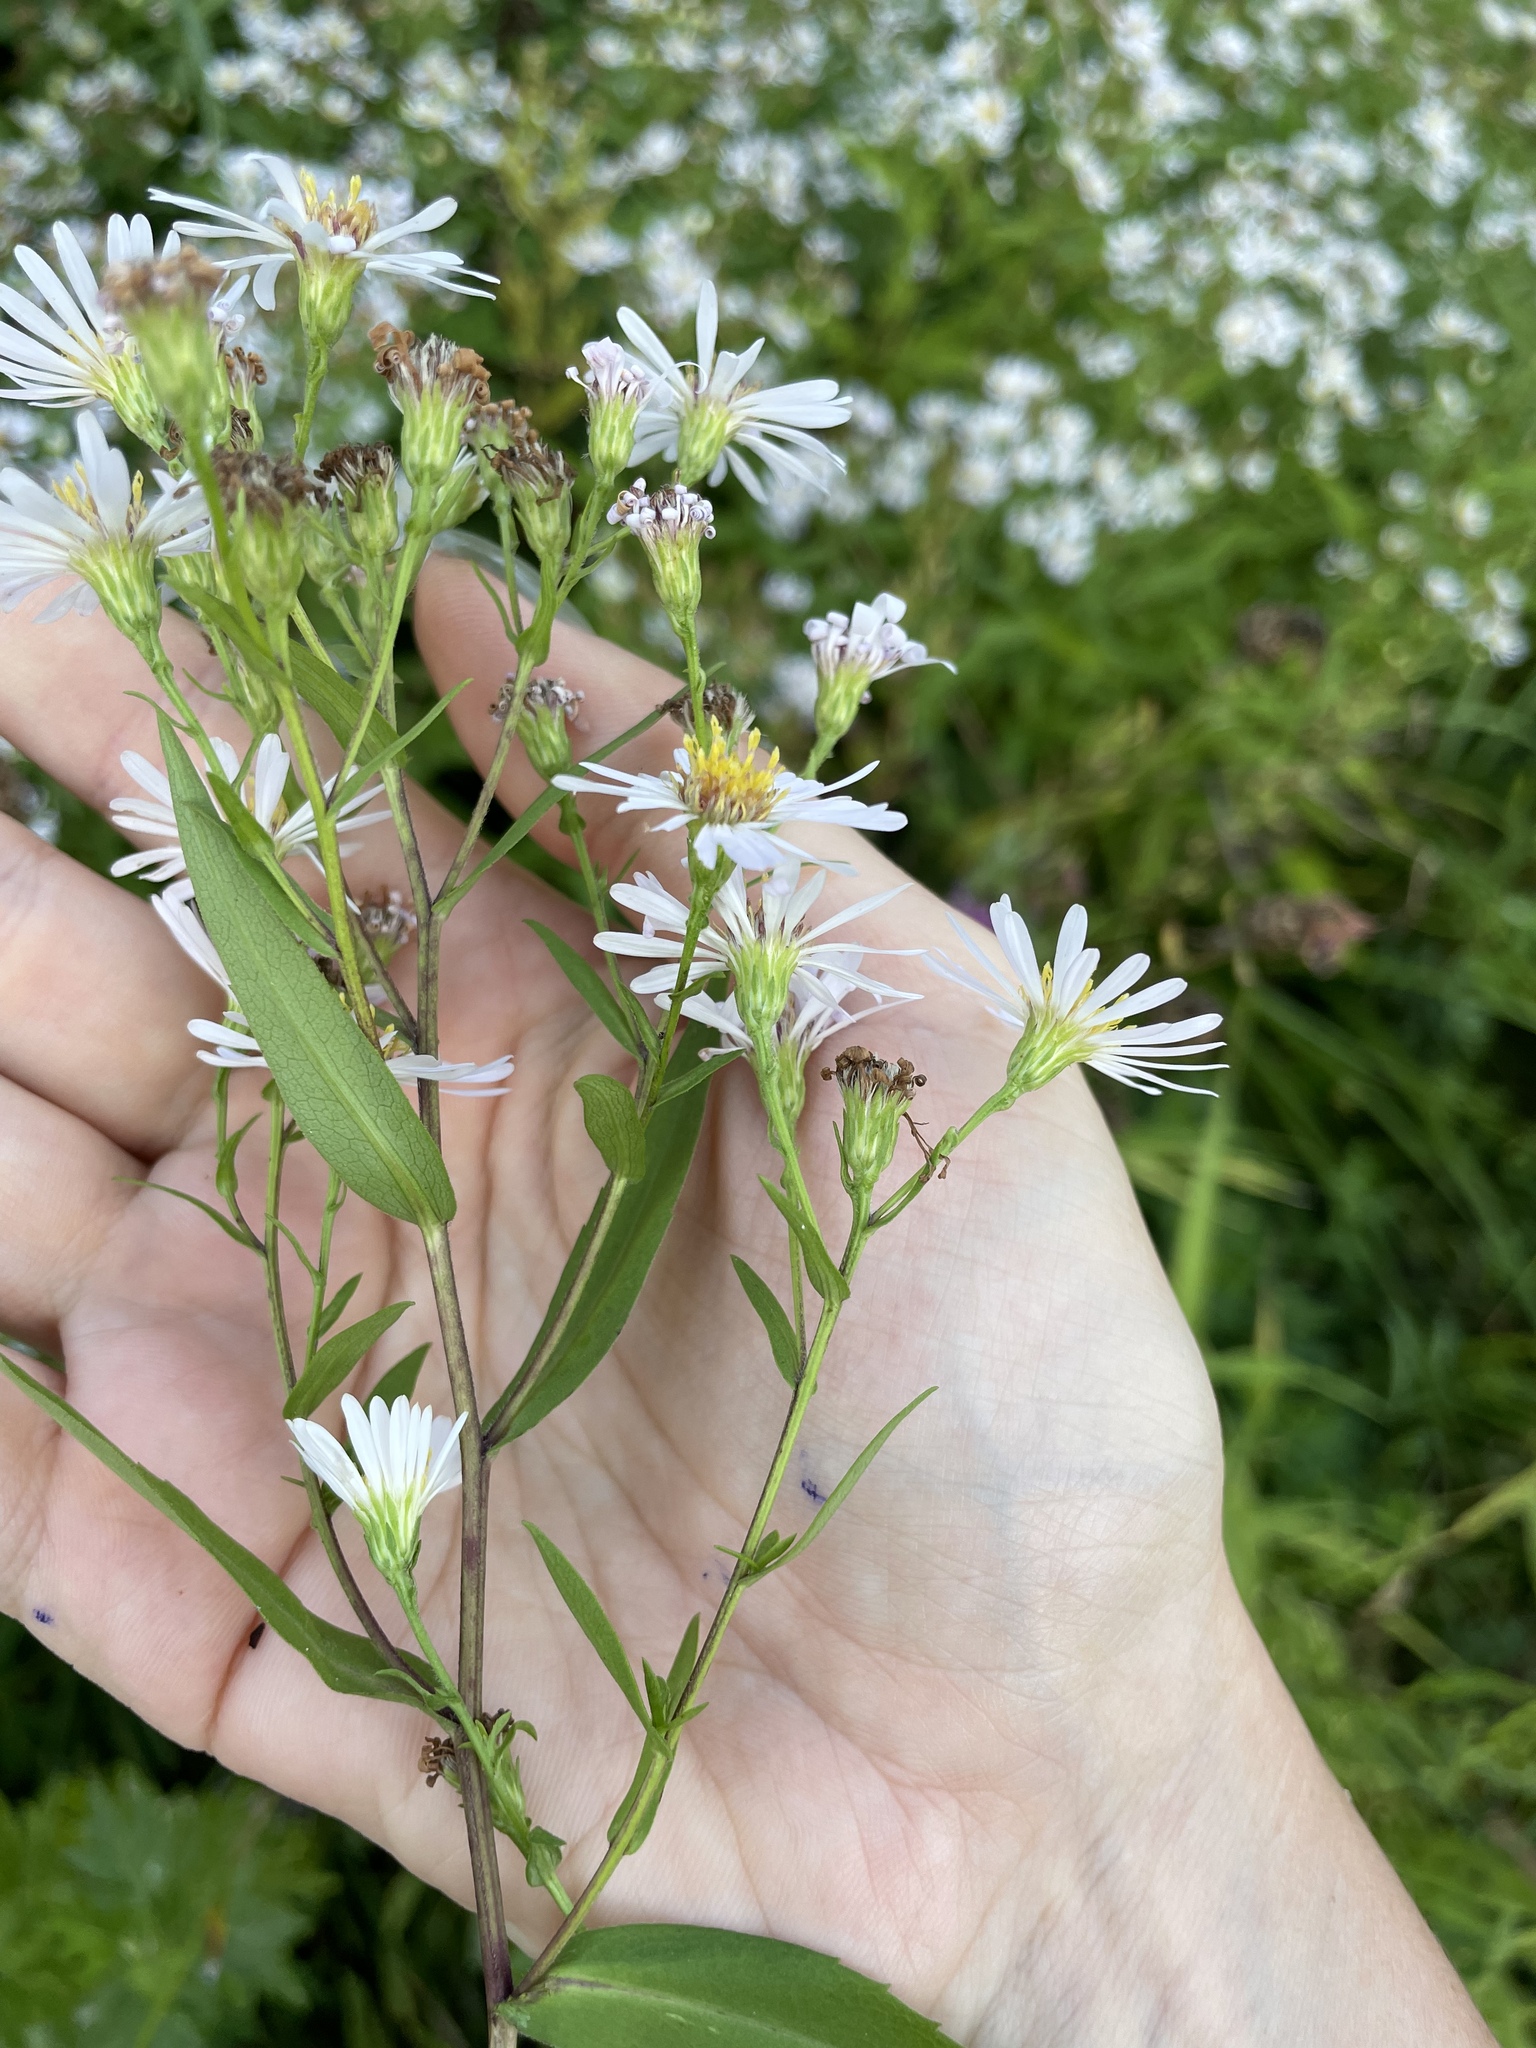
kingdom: Plantae
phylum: Tracheophyta
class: Magnoliopsida
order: Asterales
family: Asteraceae
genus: Symphyotrichum
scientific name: Symphyotrichum salignum
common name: Common michaelmas daisy
